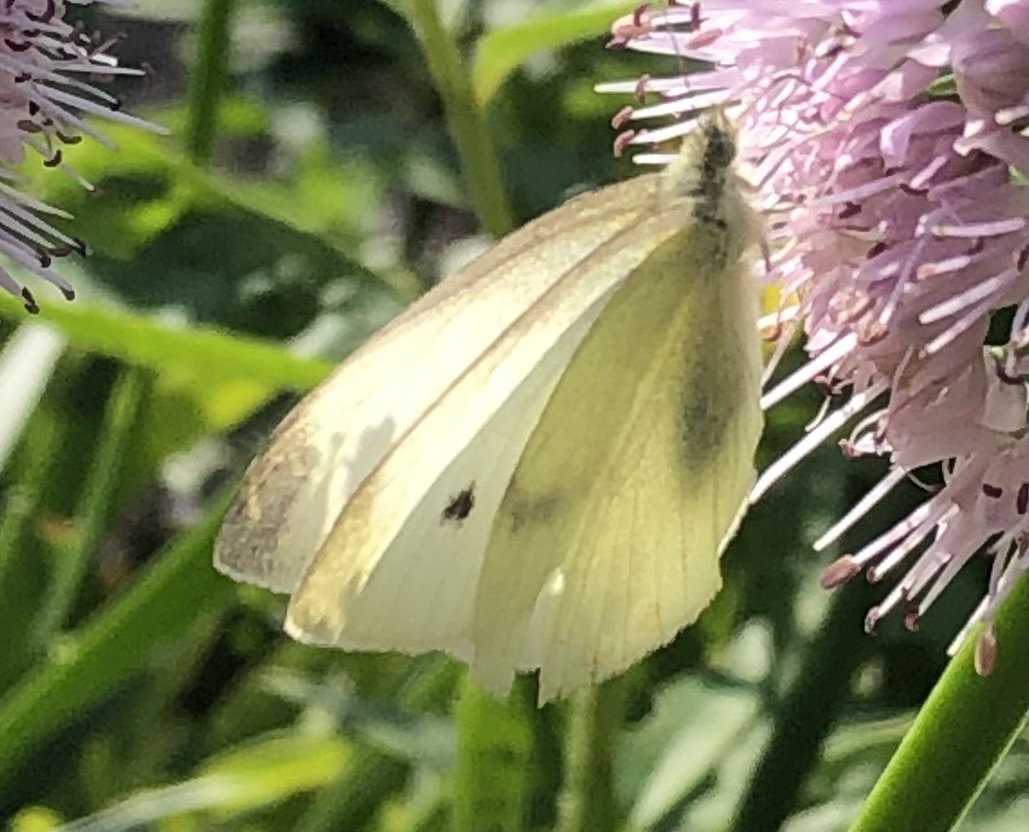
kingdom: Animalia
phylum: Arthropoda
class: Insecta
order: Lepidoptera
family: Pieridae
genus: Pieris
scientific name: Pieris rapae
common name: Small white
